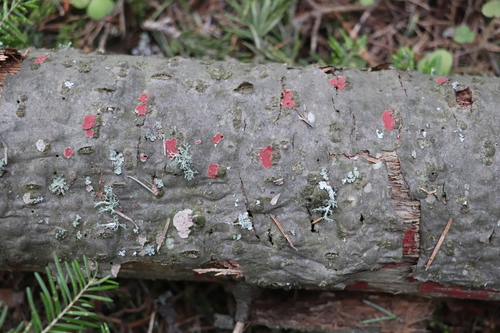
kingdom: Fungi
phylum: Basidiomycota
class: Agaricomycetes
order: Hymenochaetales
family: Hymenochaetaceae
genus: Hymenochaete
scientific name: Hymenochaete cruenta
